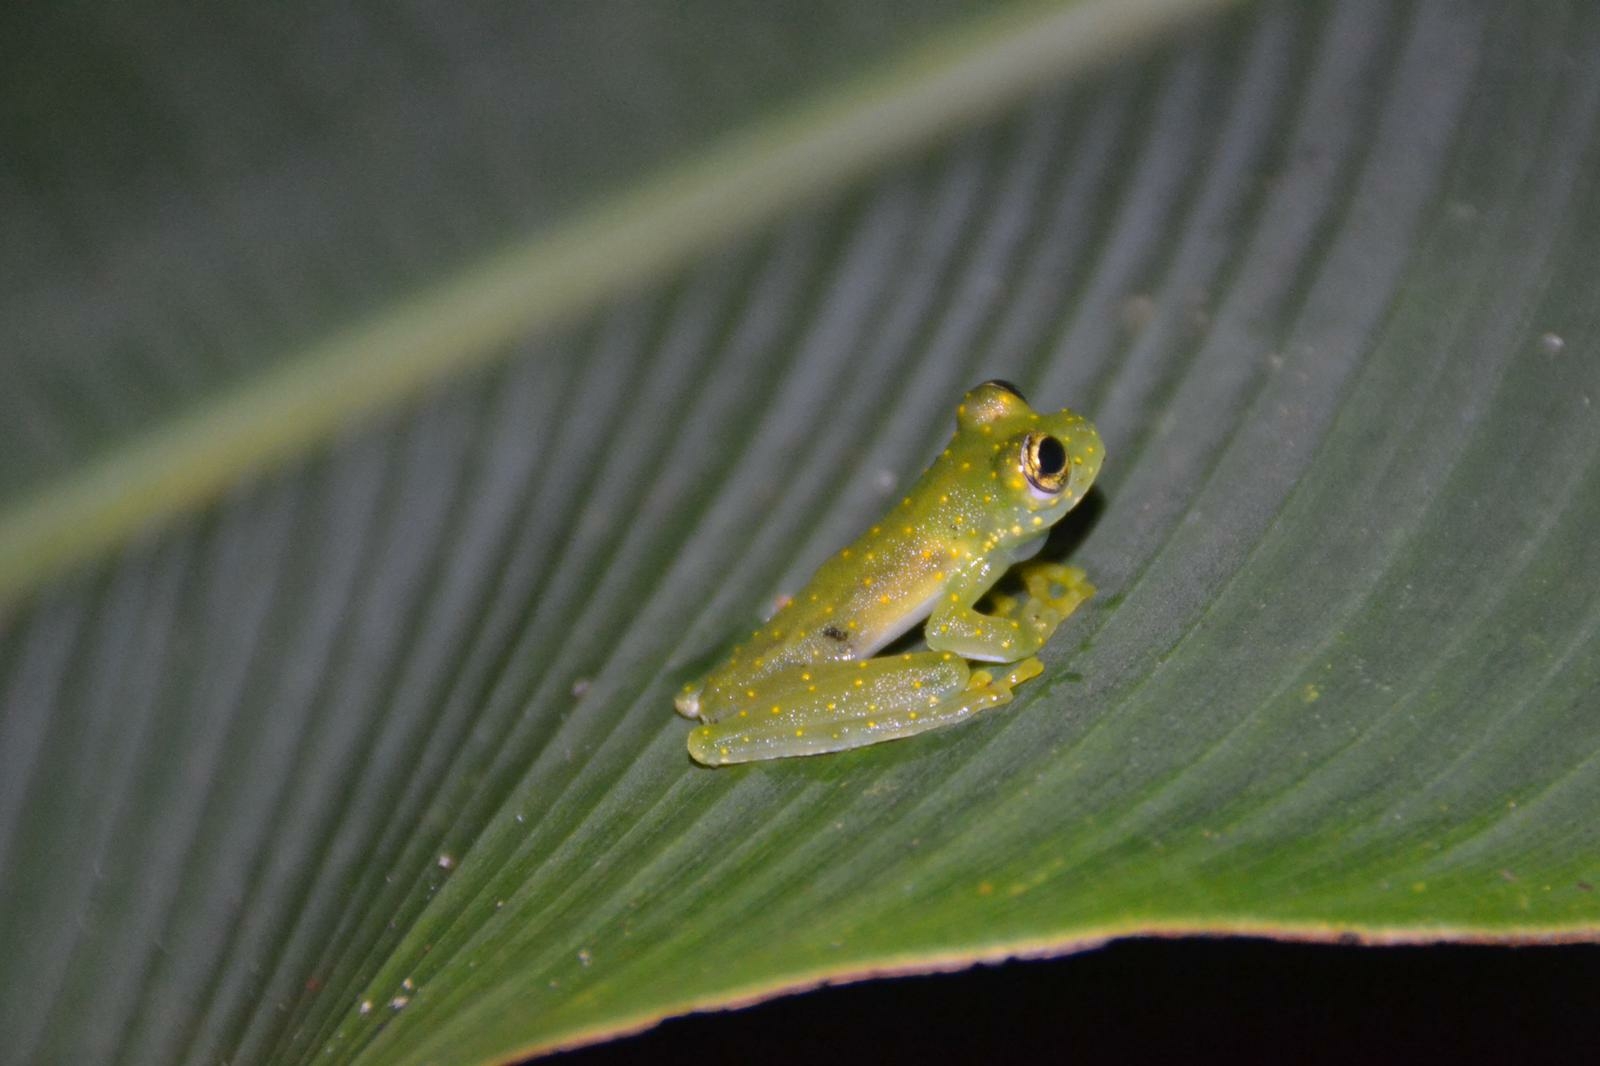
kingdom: Animalia
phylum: Chordata
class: Amphibia
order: Anura
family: Centrolenidae
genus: Sachatamia
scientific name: Sachatamia albomaculata
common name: Rana de cristal de cascada
